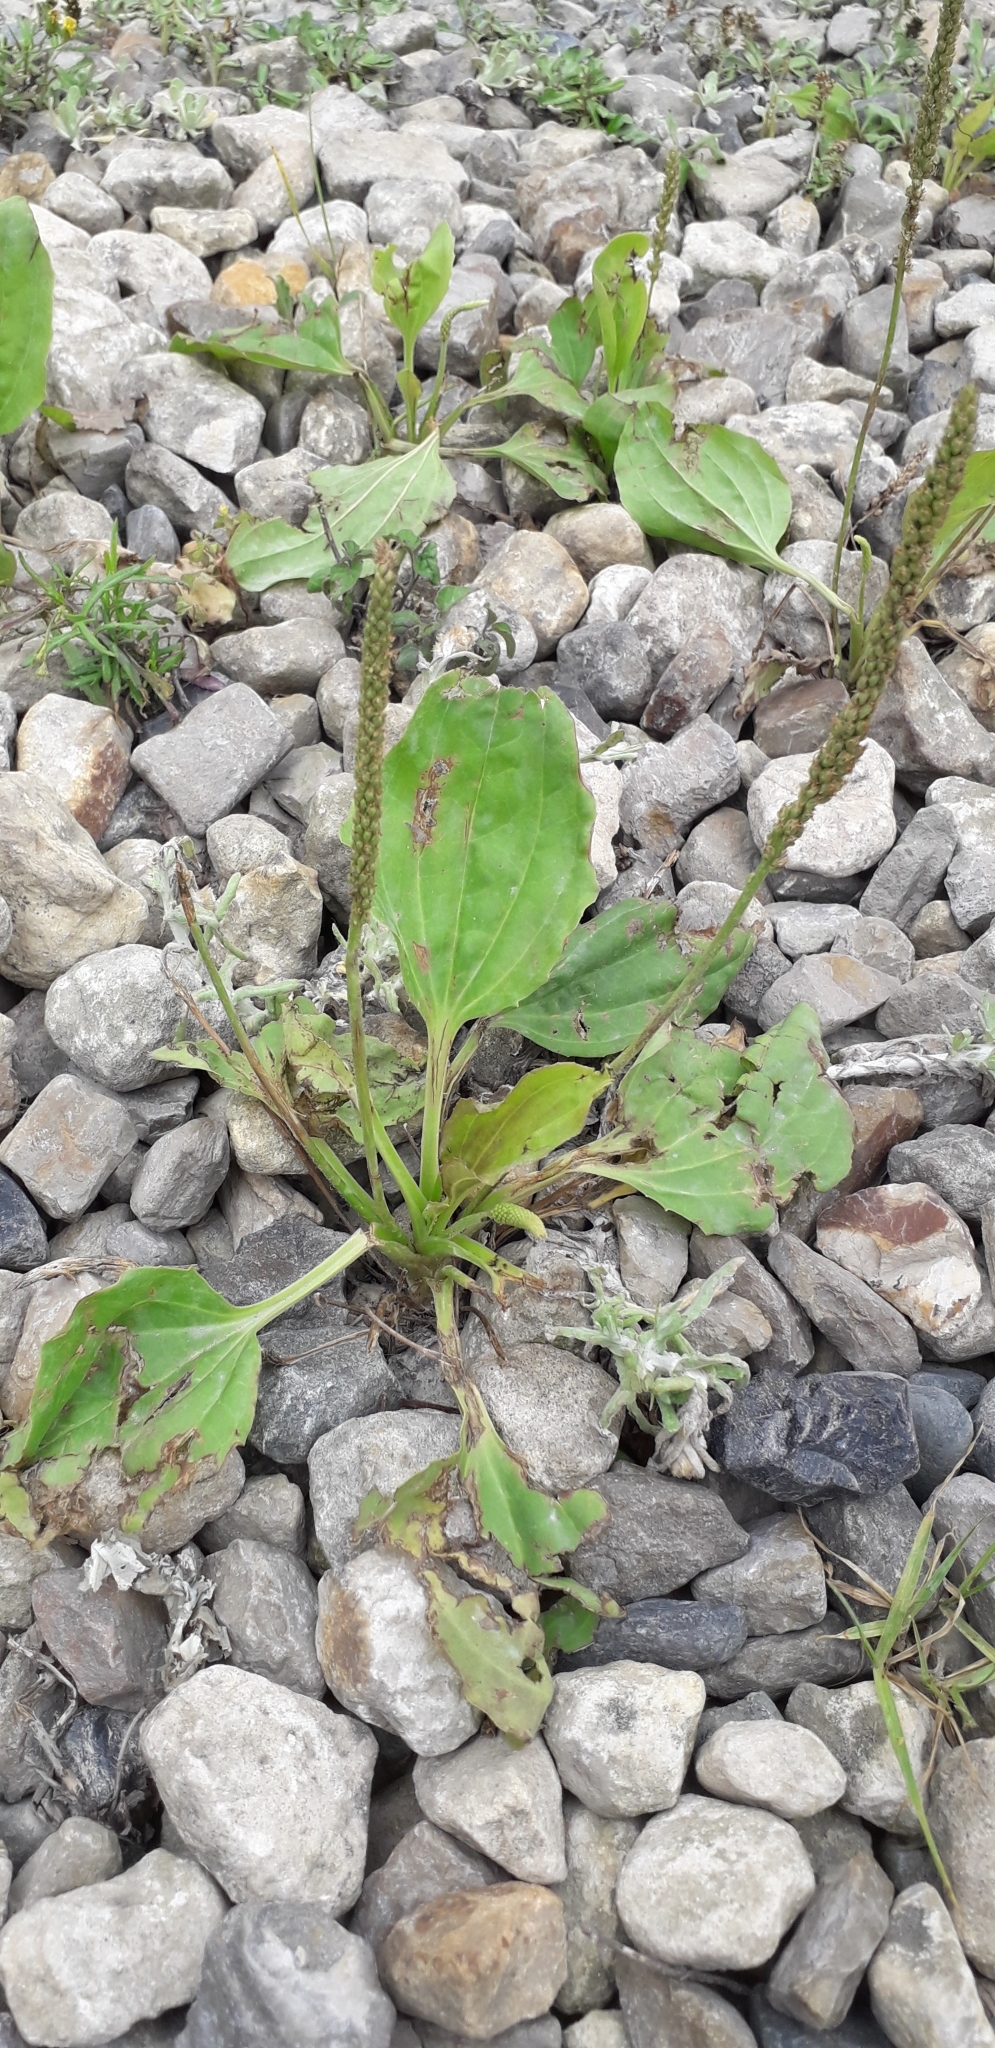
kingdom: Plantae
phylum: Tracheophyta
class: Magnoliopsida
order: Lamiales
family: Plantaginaceae
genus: Plantago
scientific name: Plantago major
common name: Common plantain
